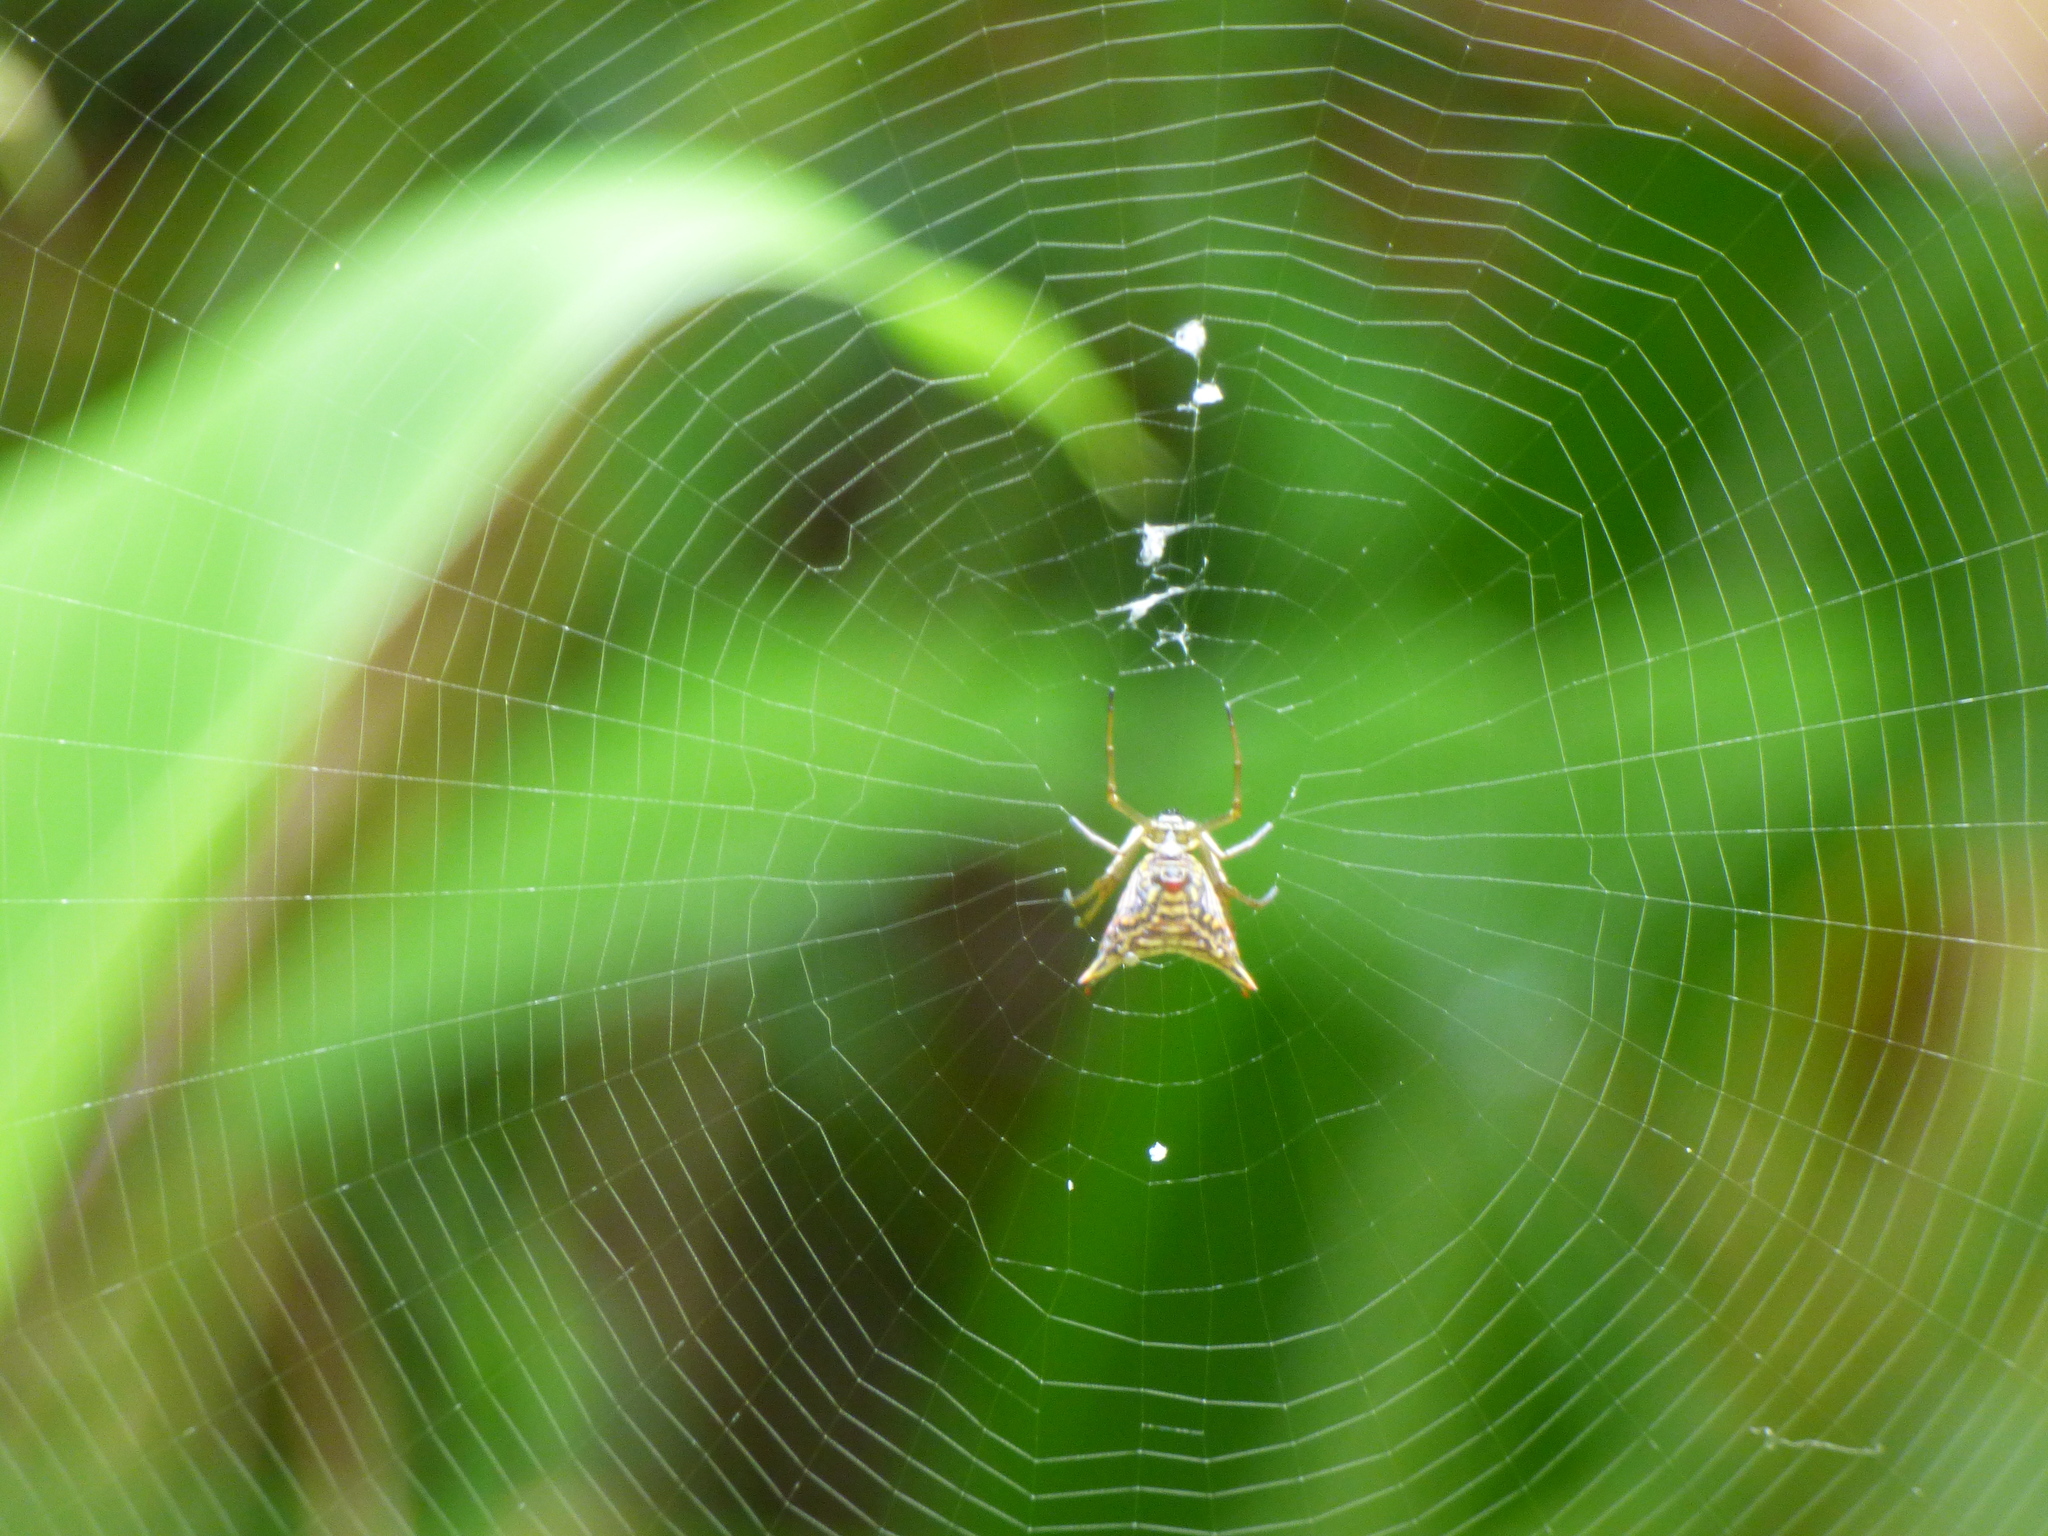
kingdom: Animalia
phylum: Arthropoda
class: Arachnida
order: Araneae
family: Araneidae
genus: Micrathena
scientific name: Micrathena lucasi
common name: Orb weavers
